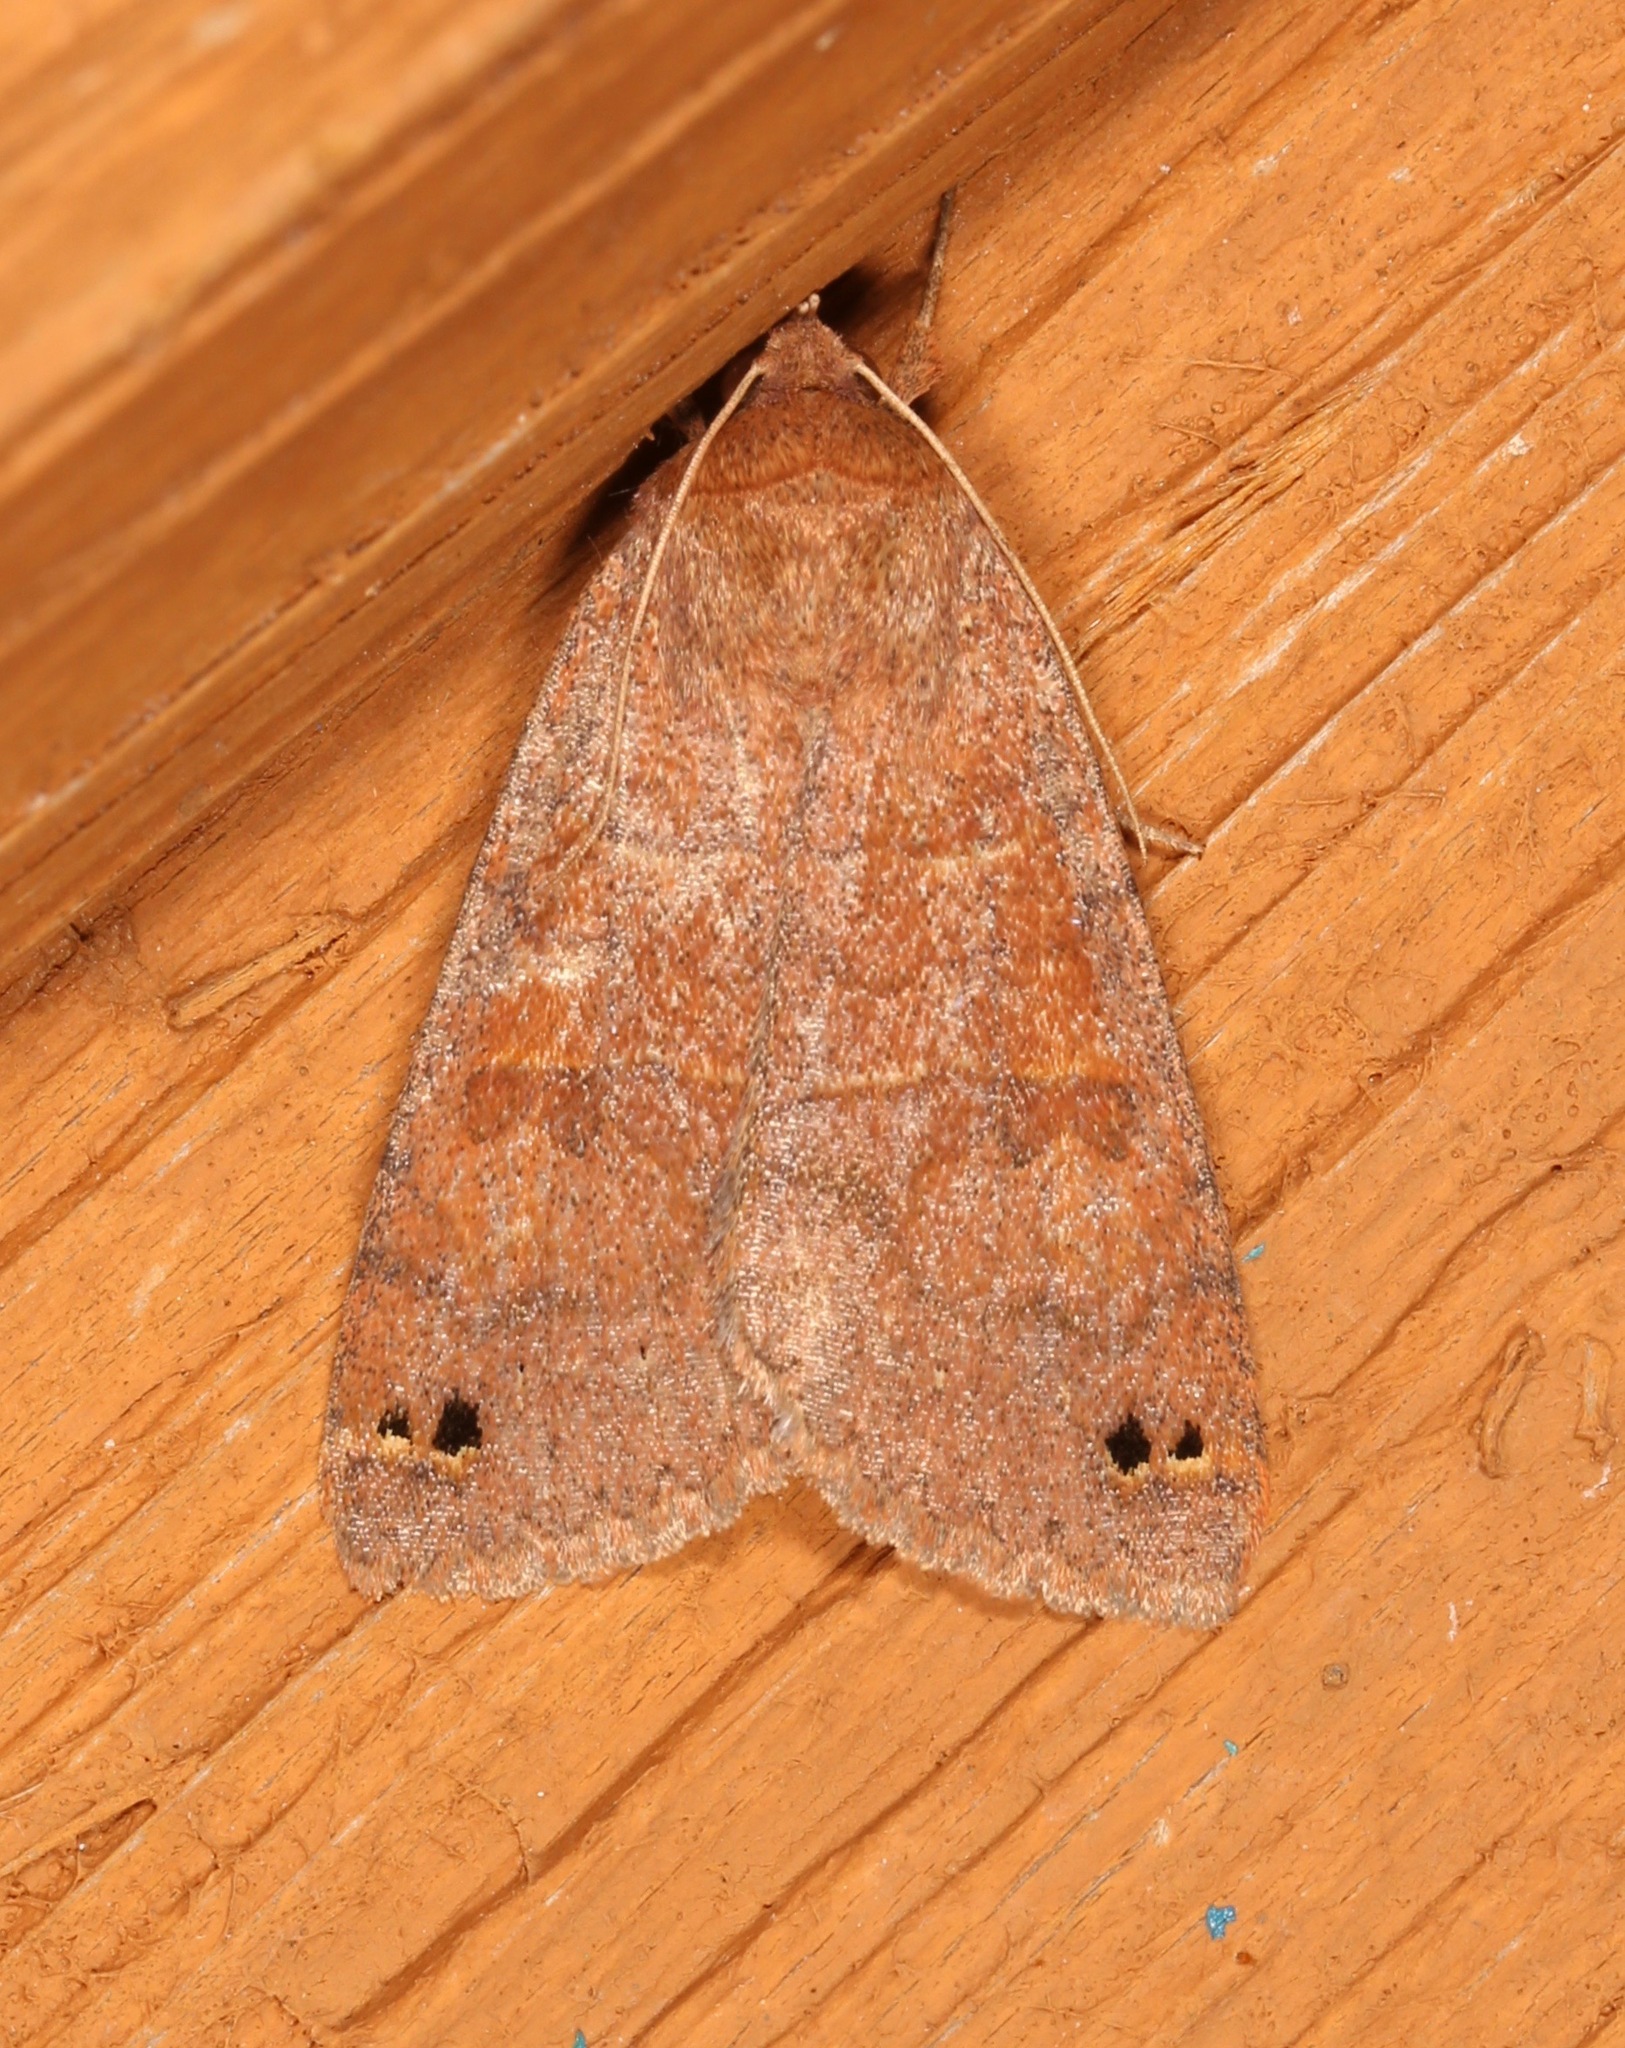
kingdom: Animalia
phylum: Arthropoda
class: Insecta
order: Lepidoptera
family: Erebidae
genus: Cissusa
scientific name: Cissusa spadix
